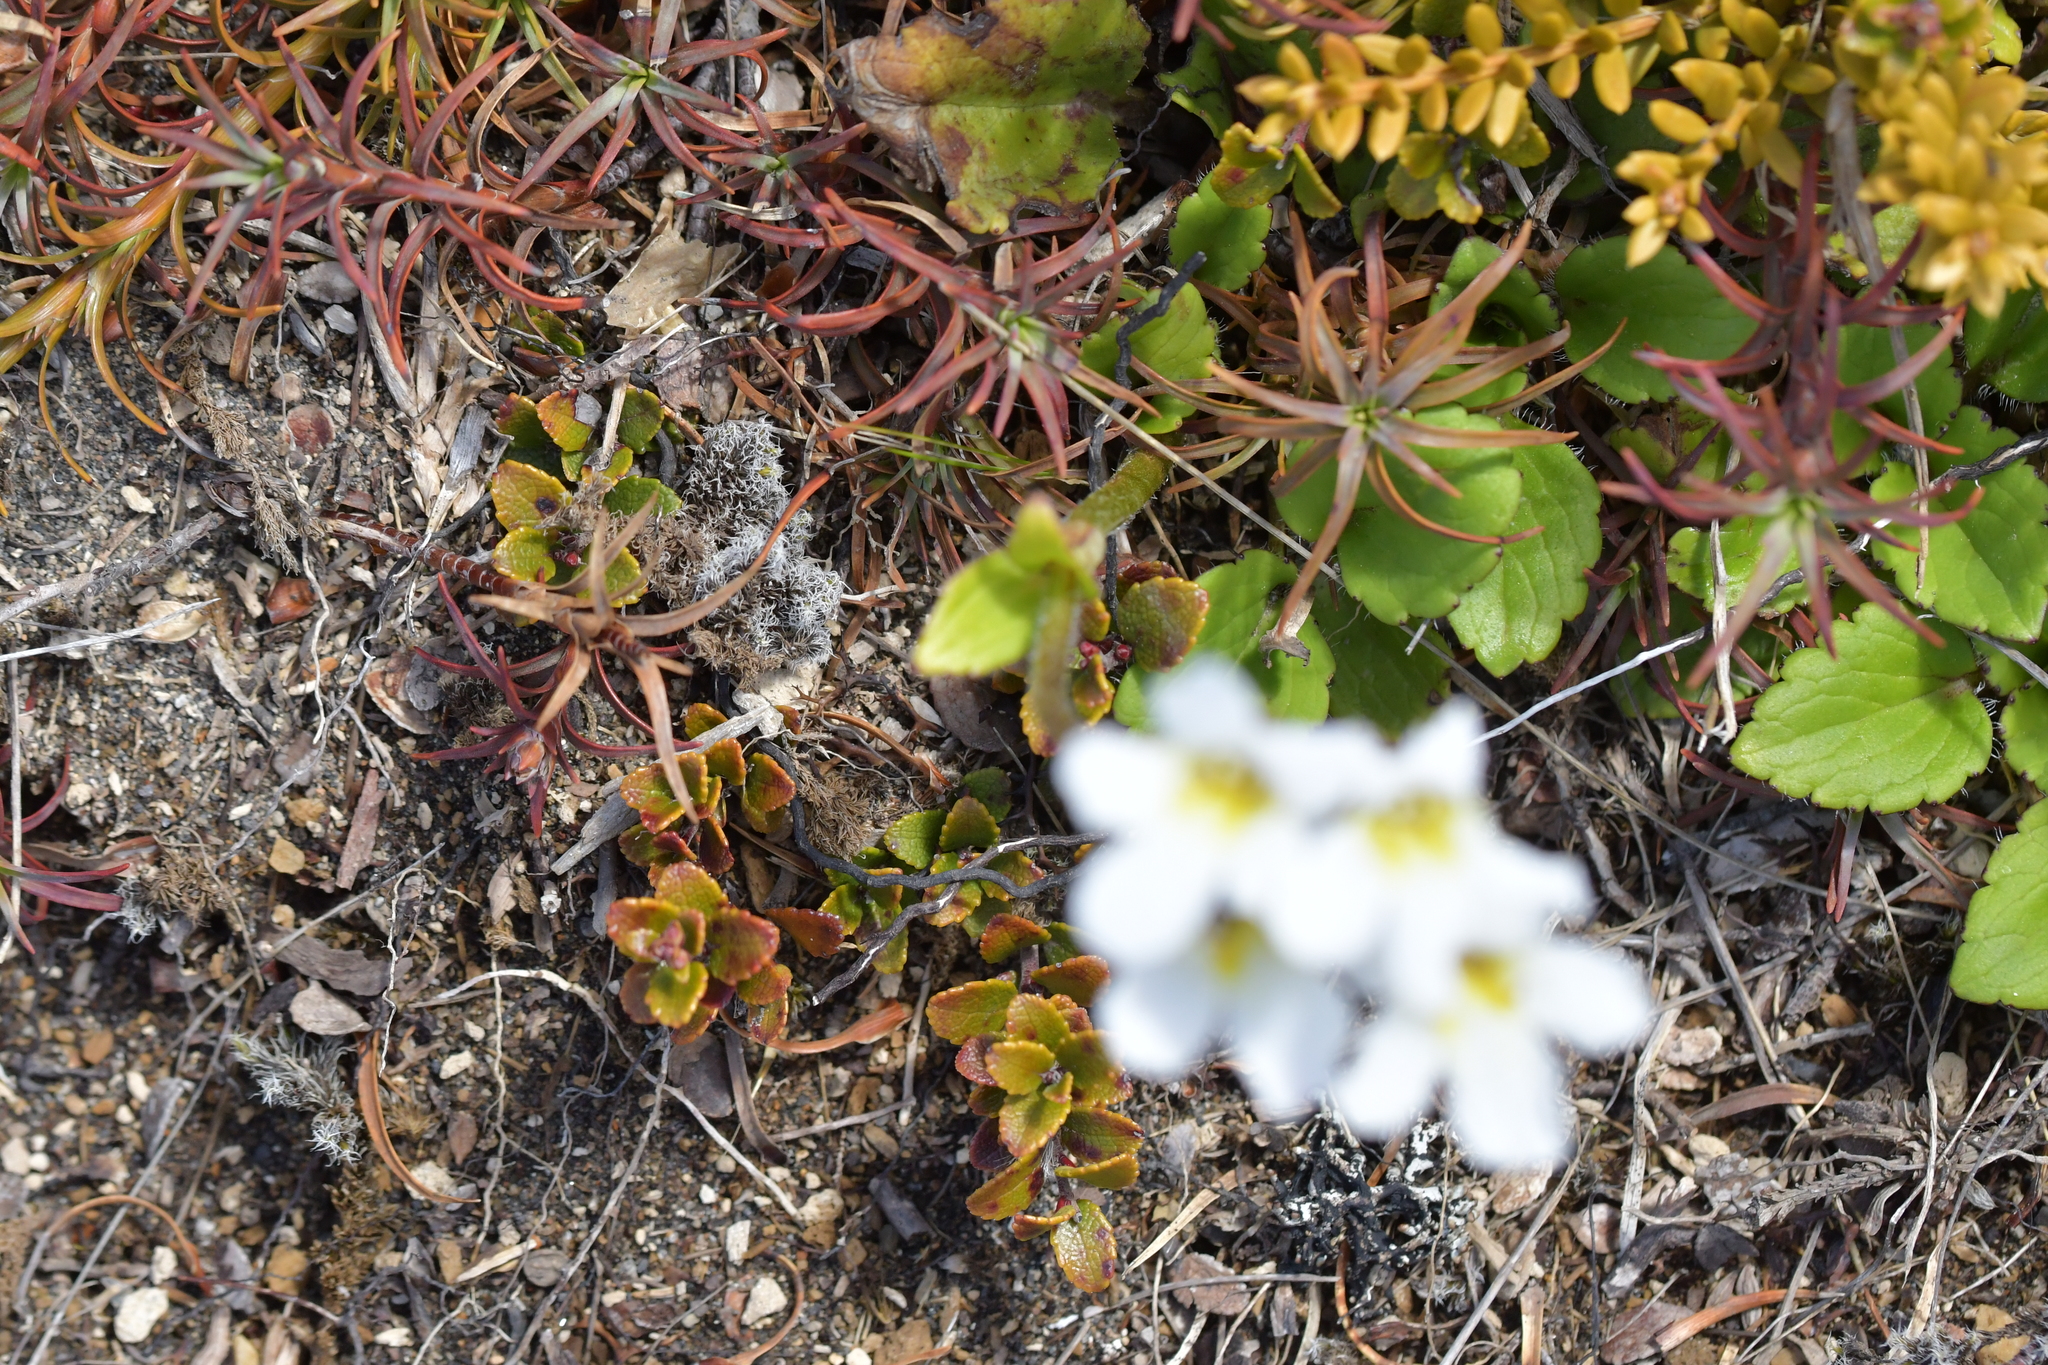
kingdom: Plantae
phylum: Tracheophyta
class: Magnoliopsida
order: Lamiales
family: Plantaginaceae
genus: Ourisia
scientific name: Ourisia macrophylla
